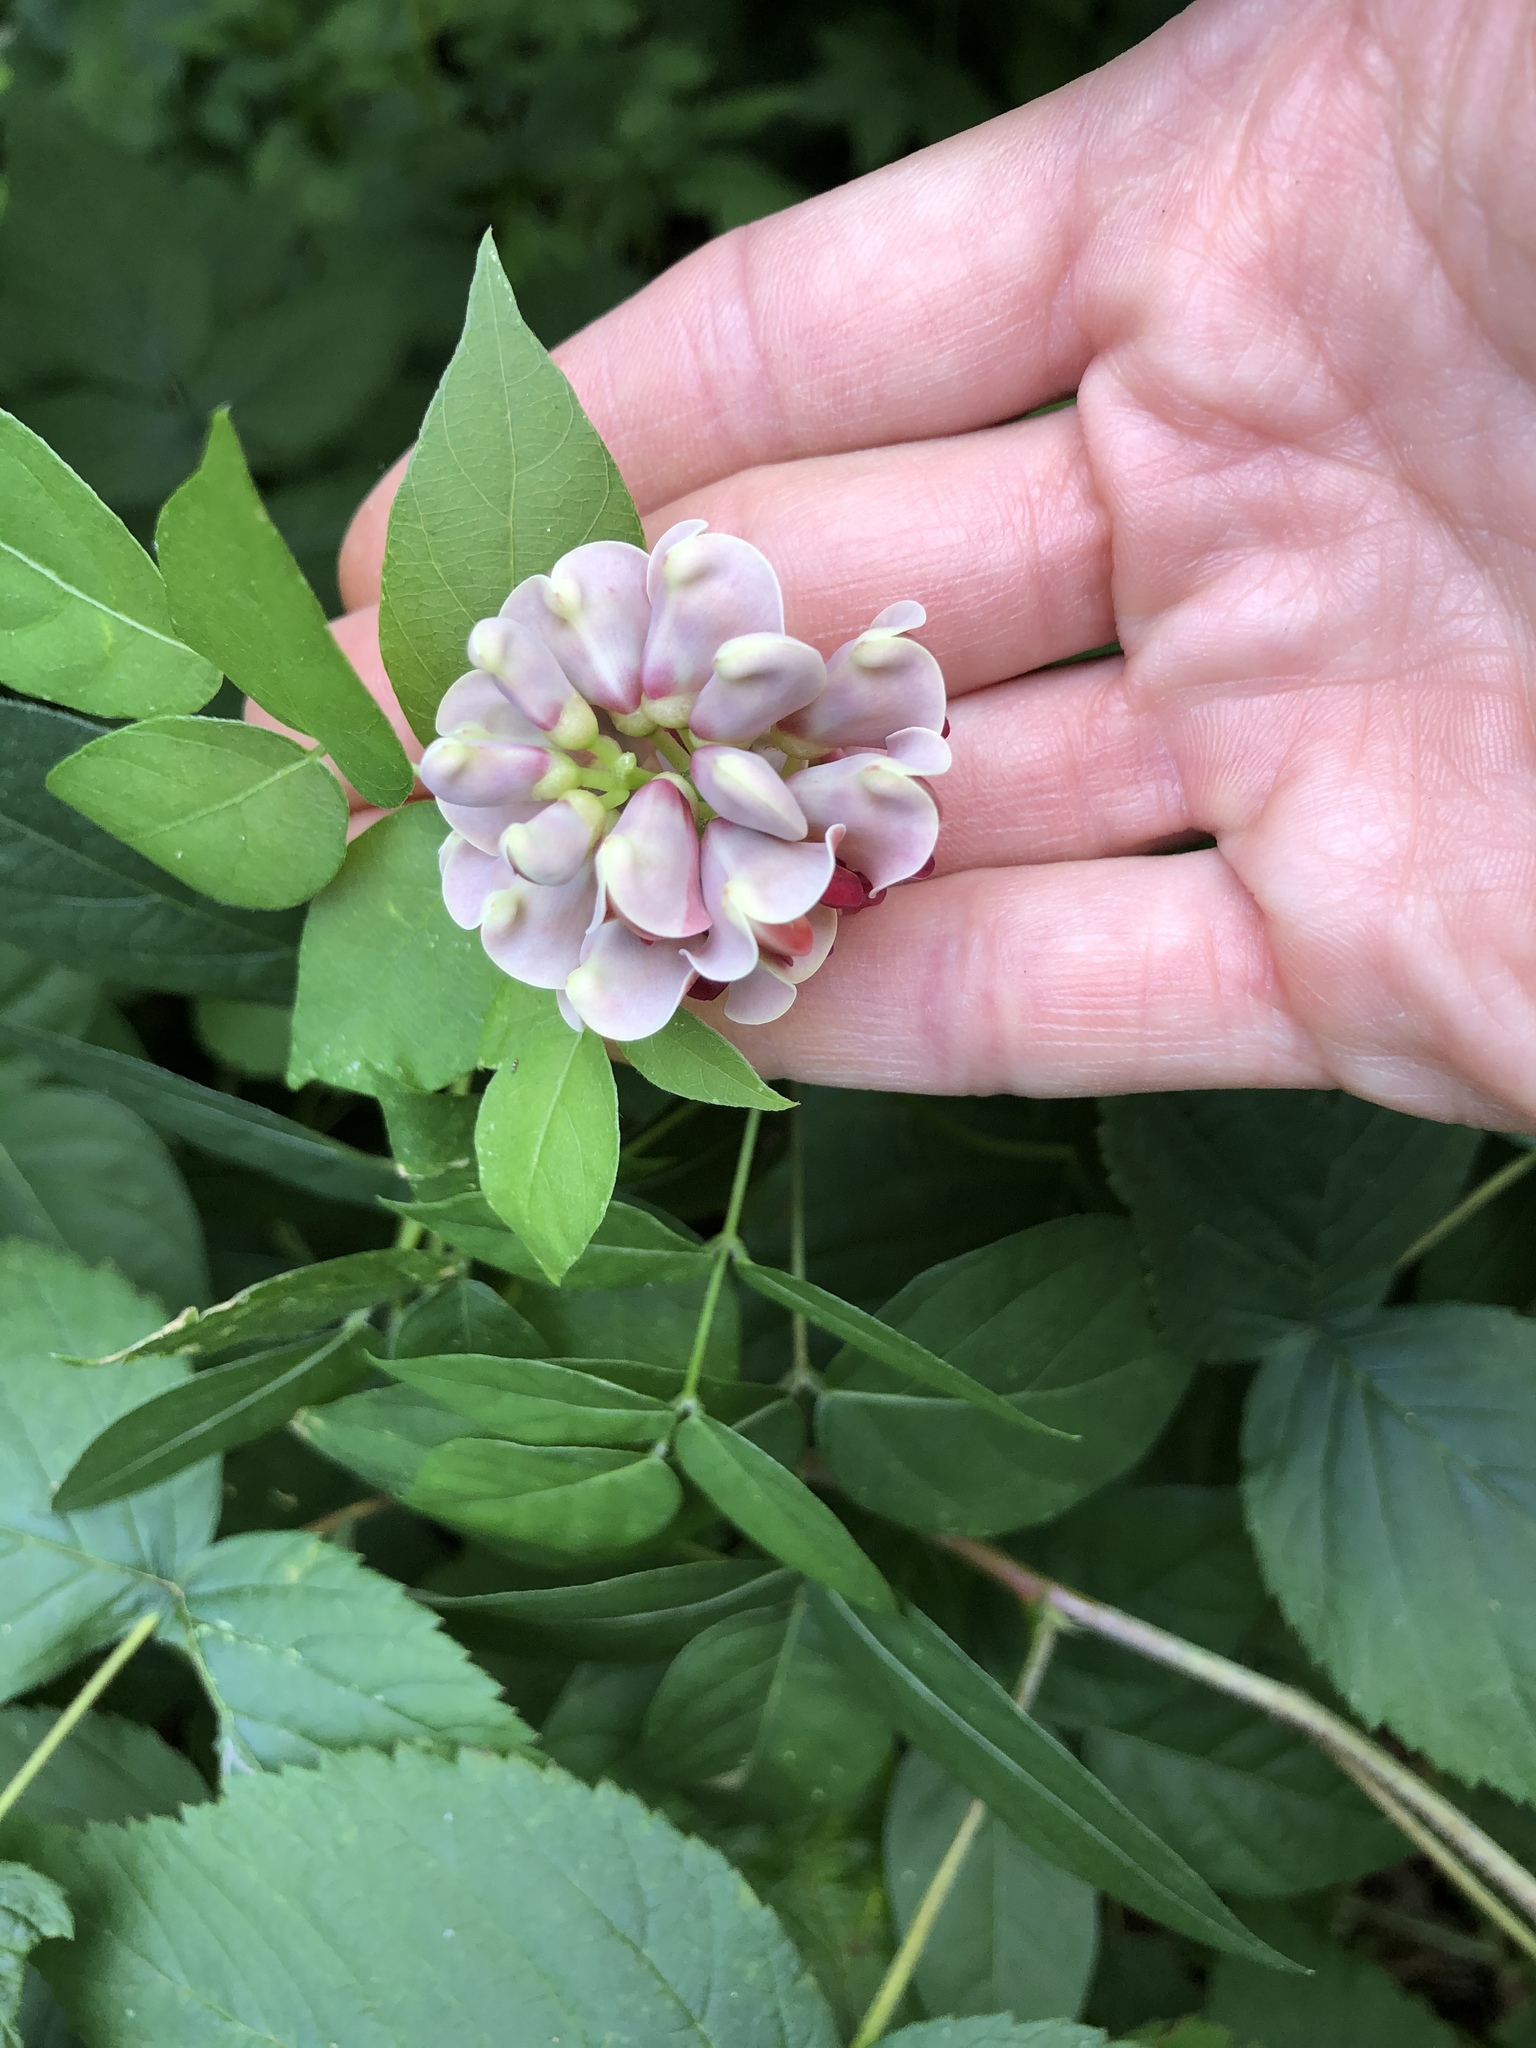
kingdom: Plantae
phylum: Tracheophyta
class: Magnoliopsida
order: Fabales
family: Fabaceae
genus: Apios
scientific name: Apios americana
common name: American potato-bean
